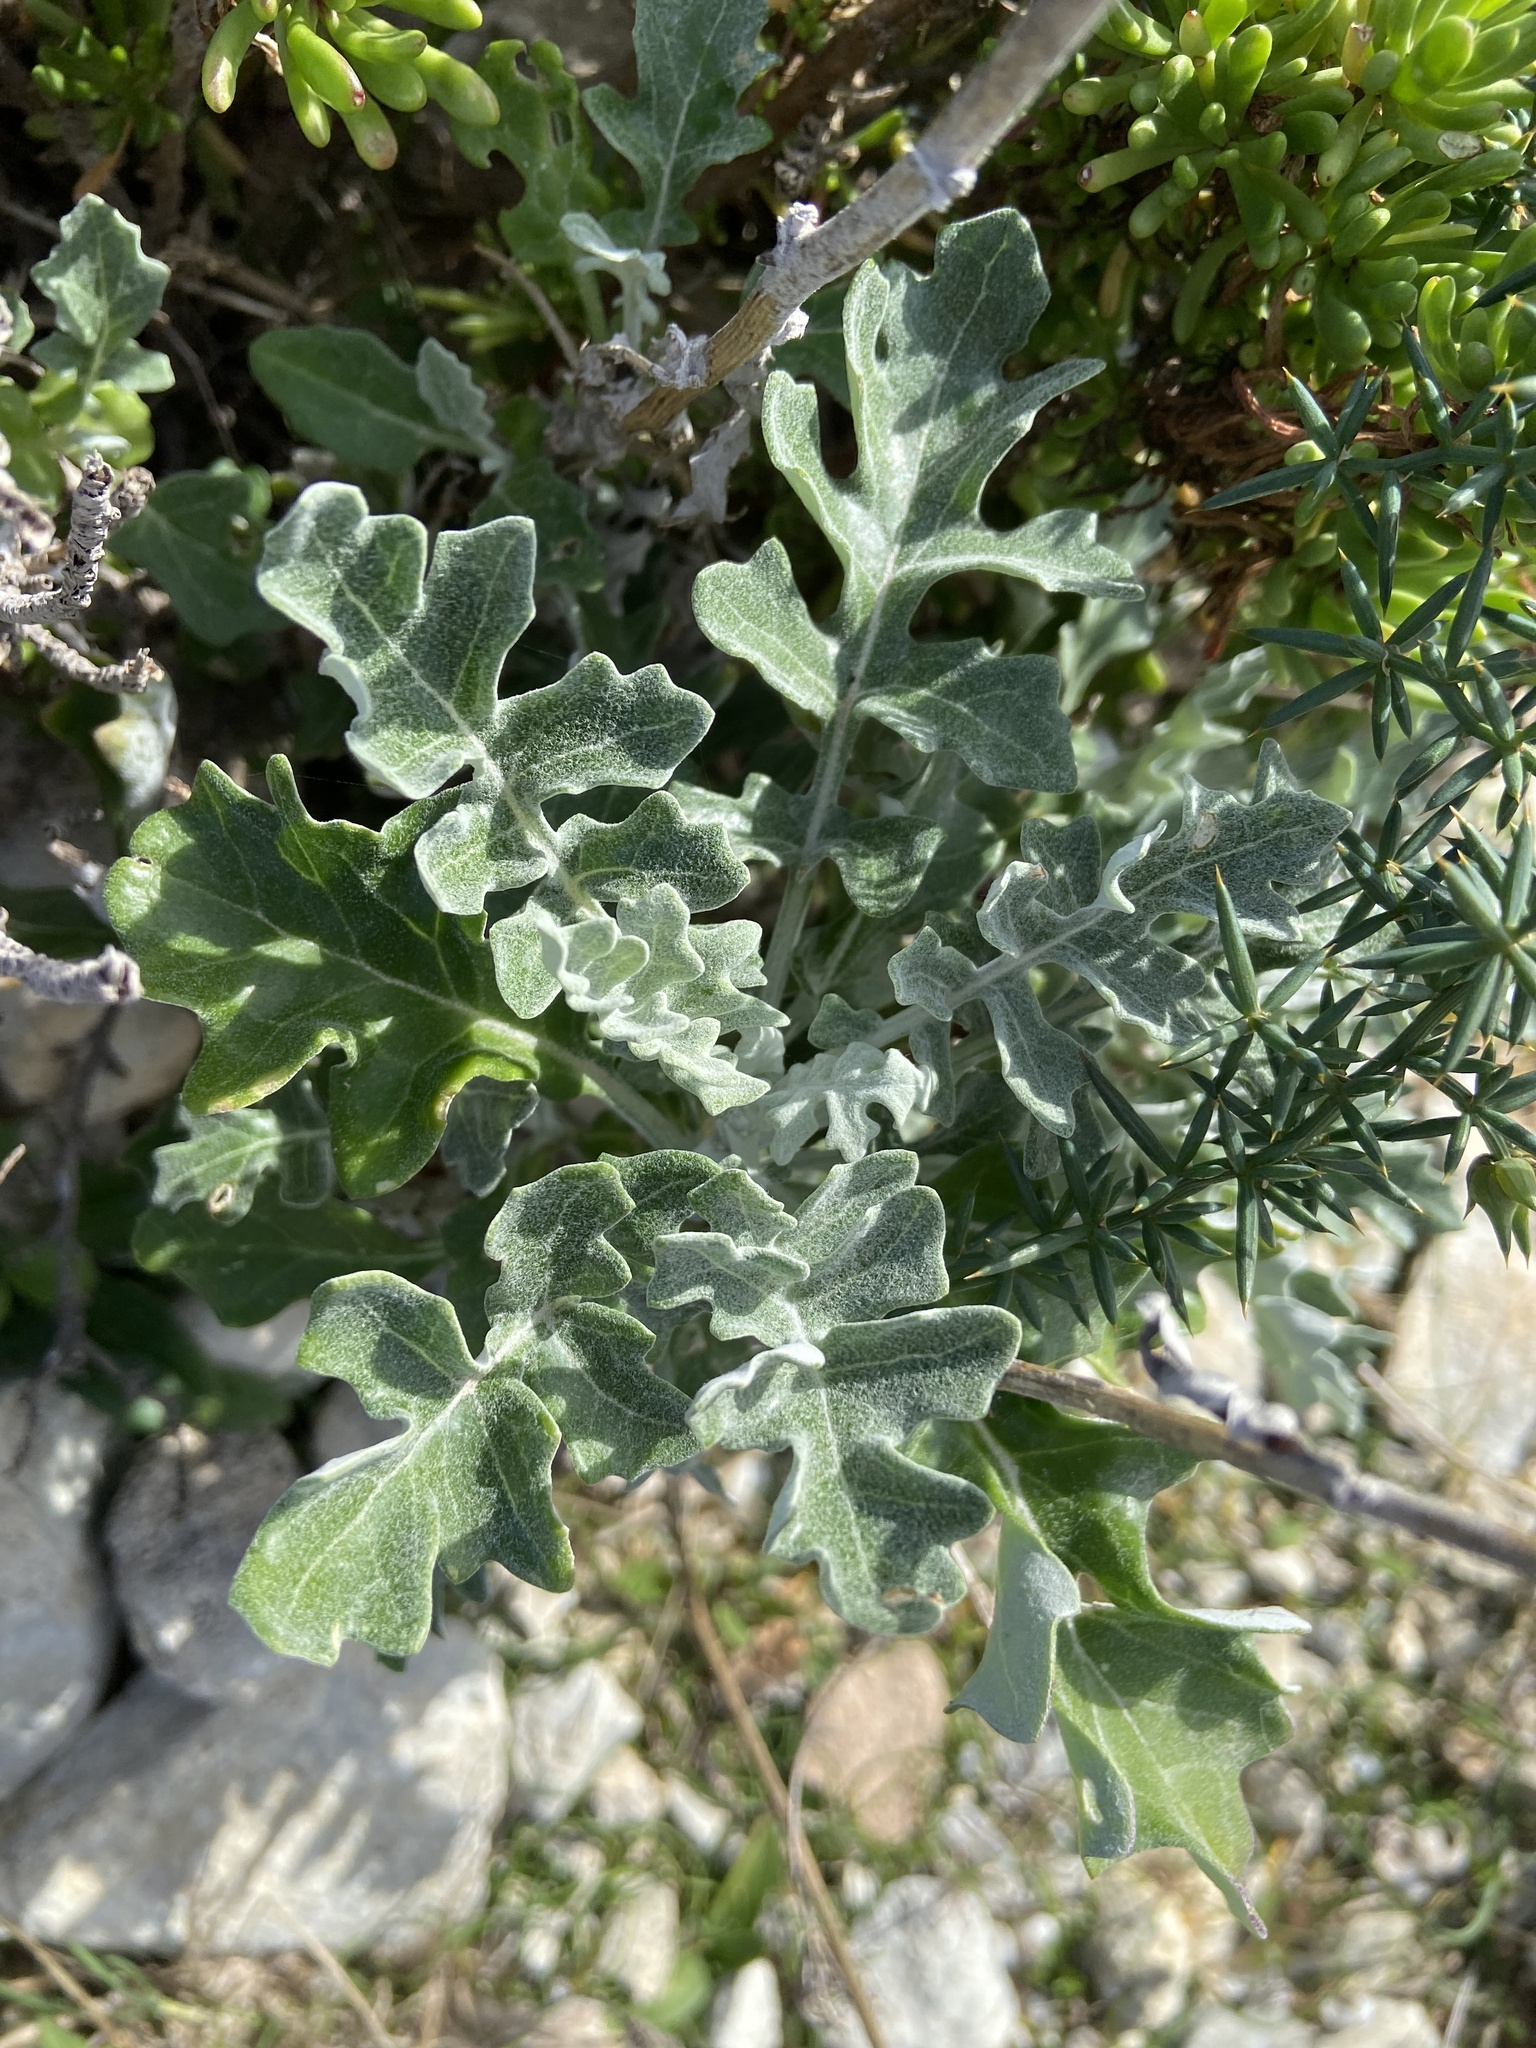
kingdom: Plantae
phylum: Tracheophyta
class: Magnoliopsida
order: Asterales
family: Asteraceae
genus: Jacobaea
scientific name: Jacobaea maritima
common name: Silver ragwort
